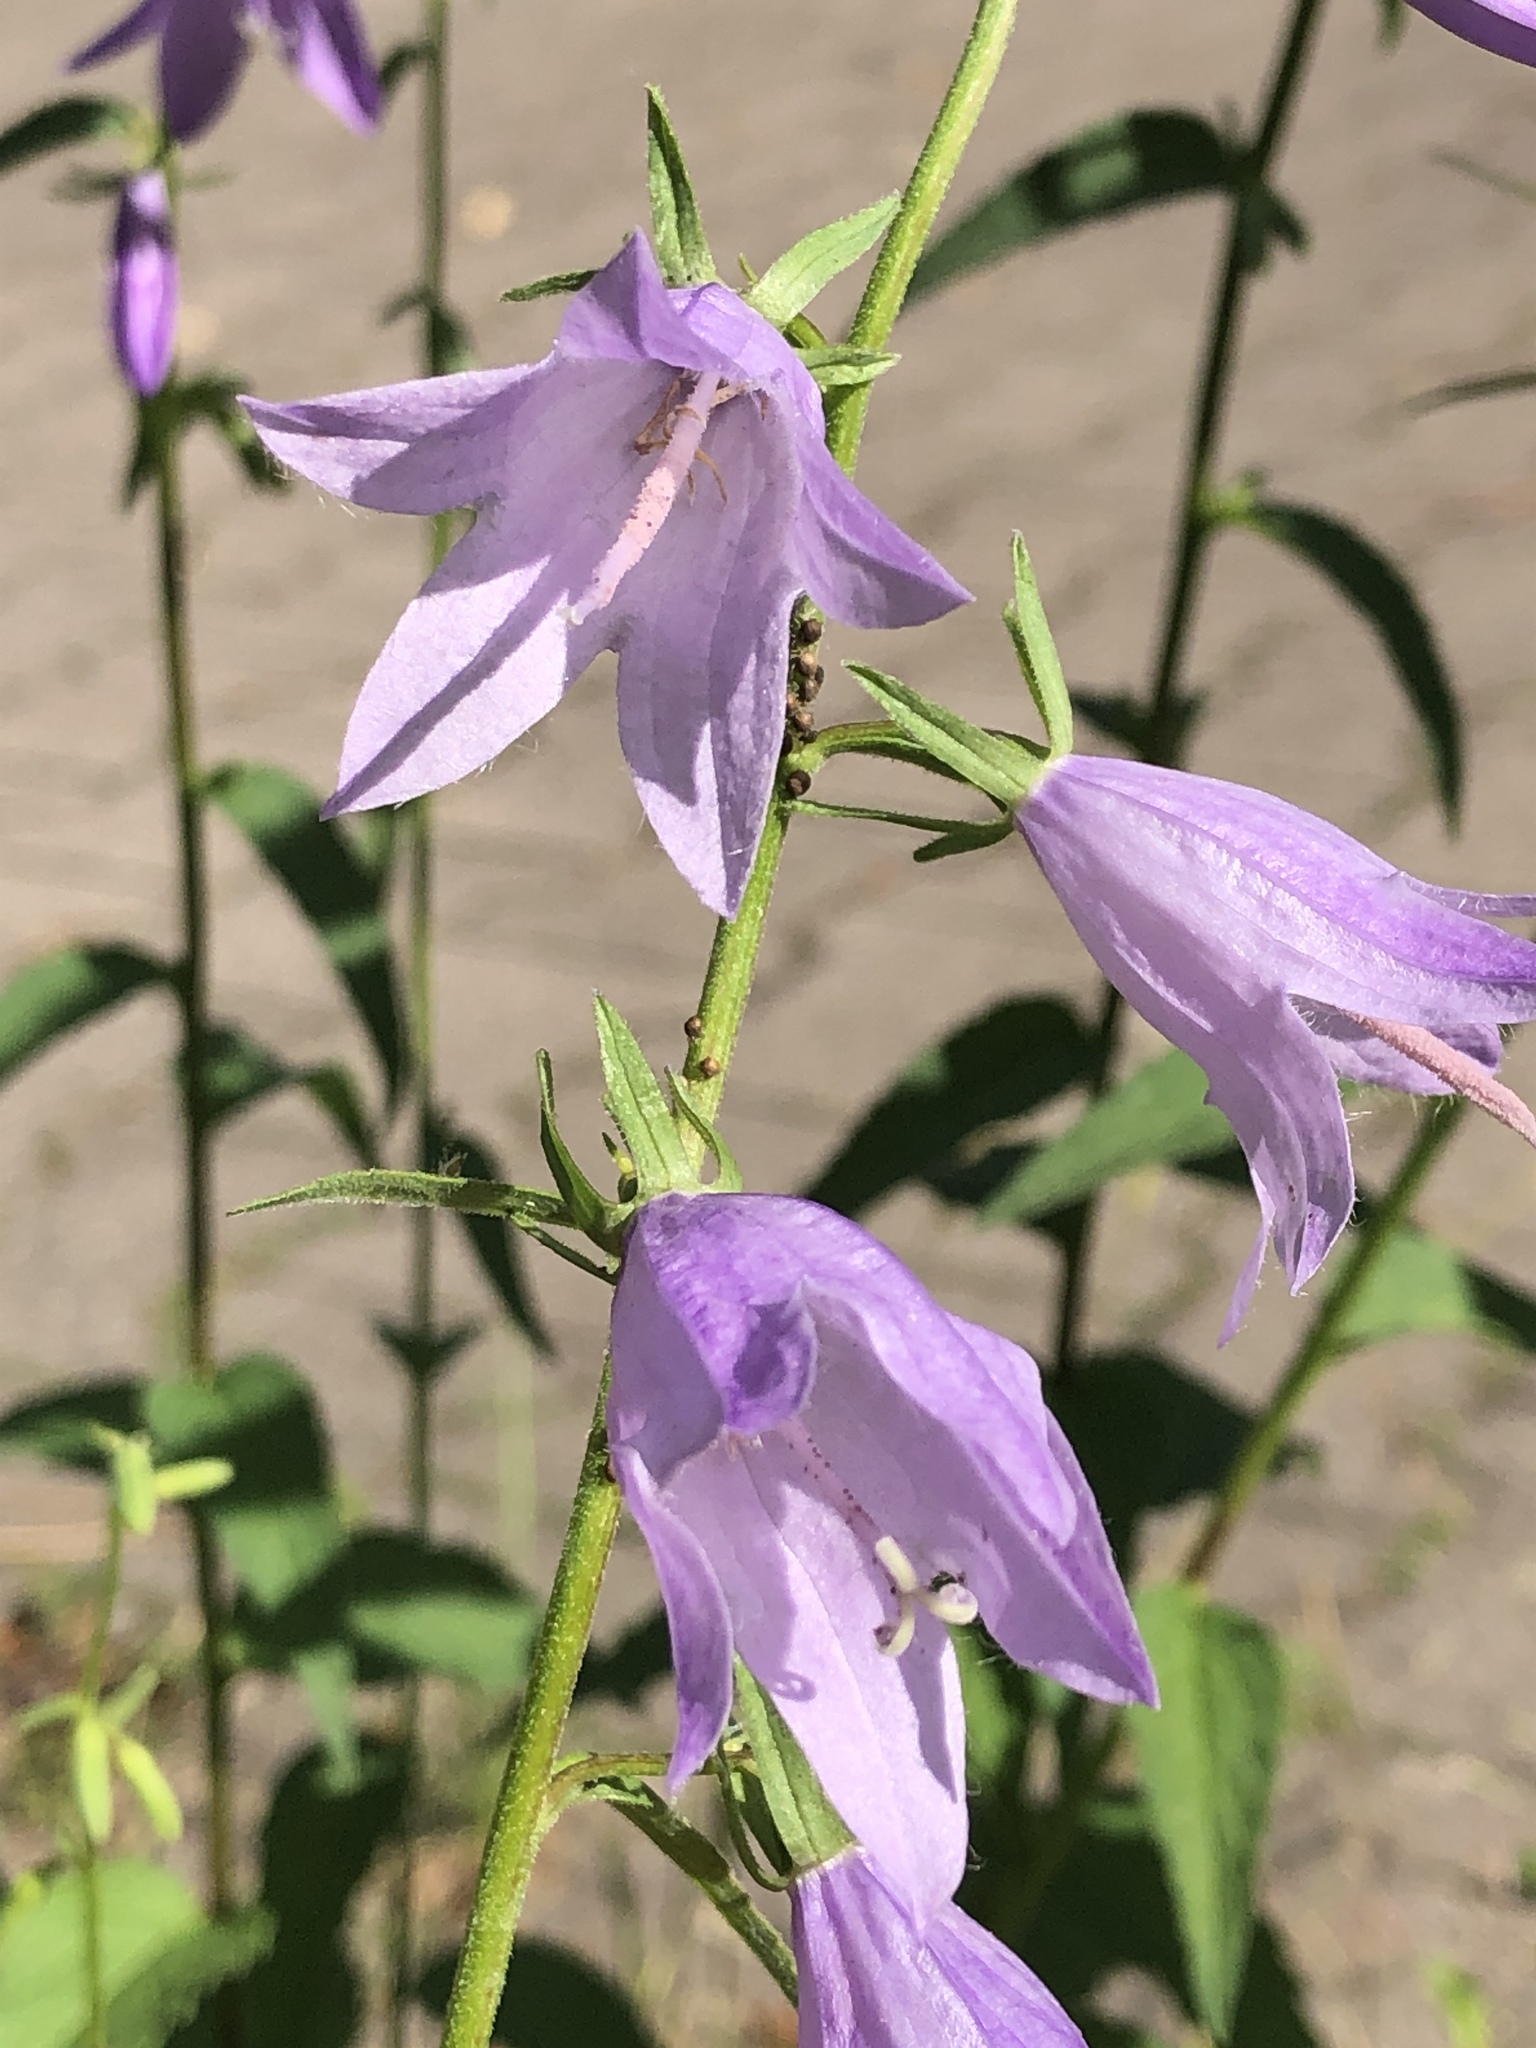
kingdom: Plantae
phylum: Tracheophyta
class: Magnoliopsida
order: Asterales
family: Campanulaceae
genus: Campanula
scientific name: Campanula rapunculoides
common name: Creeping bellflower
